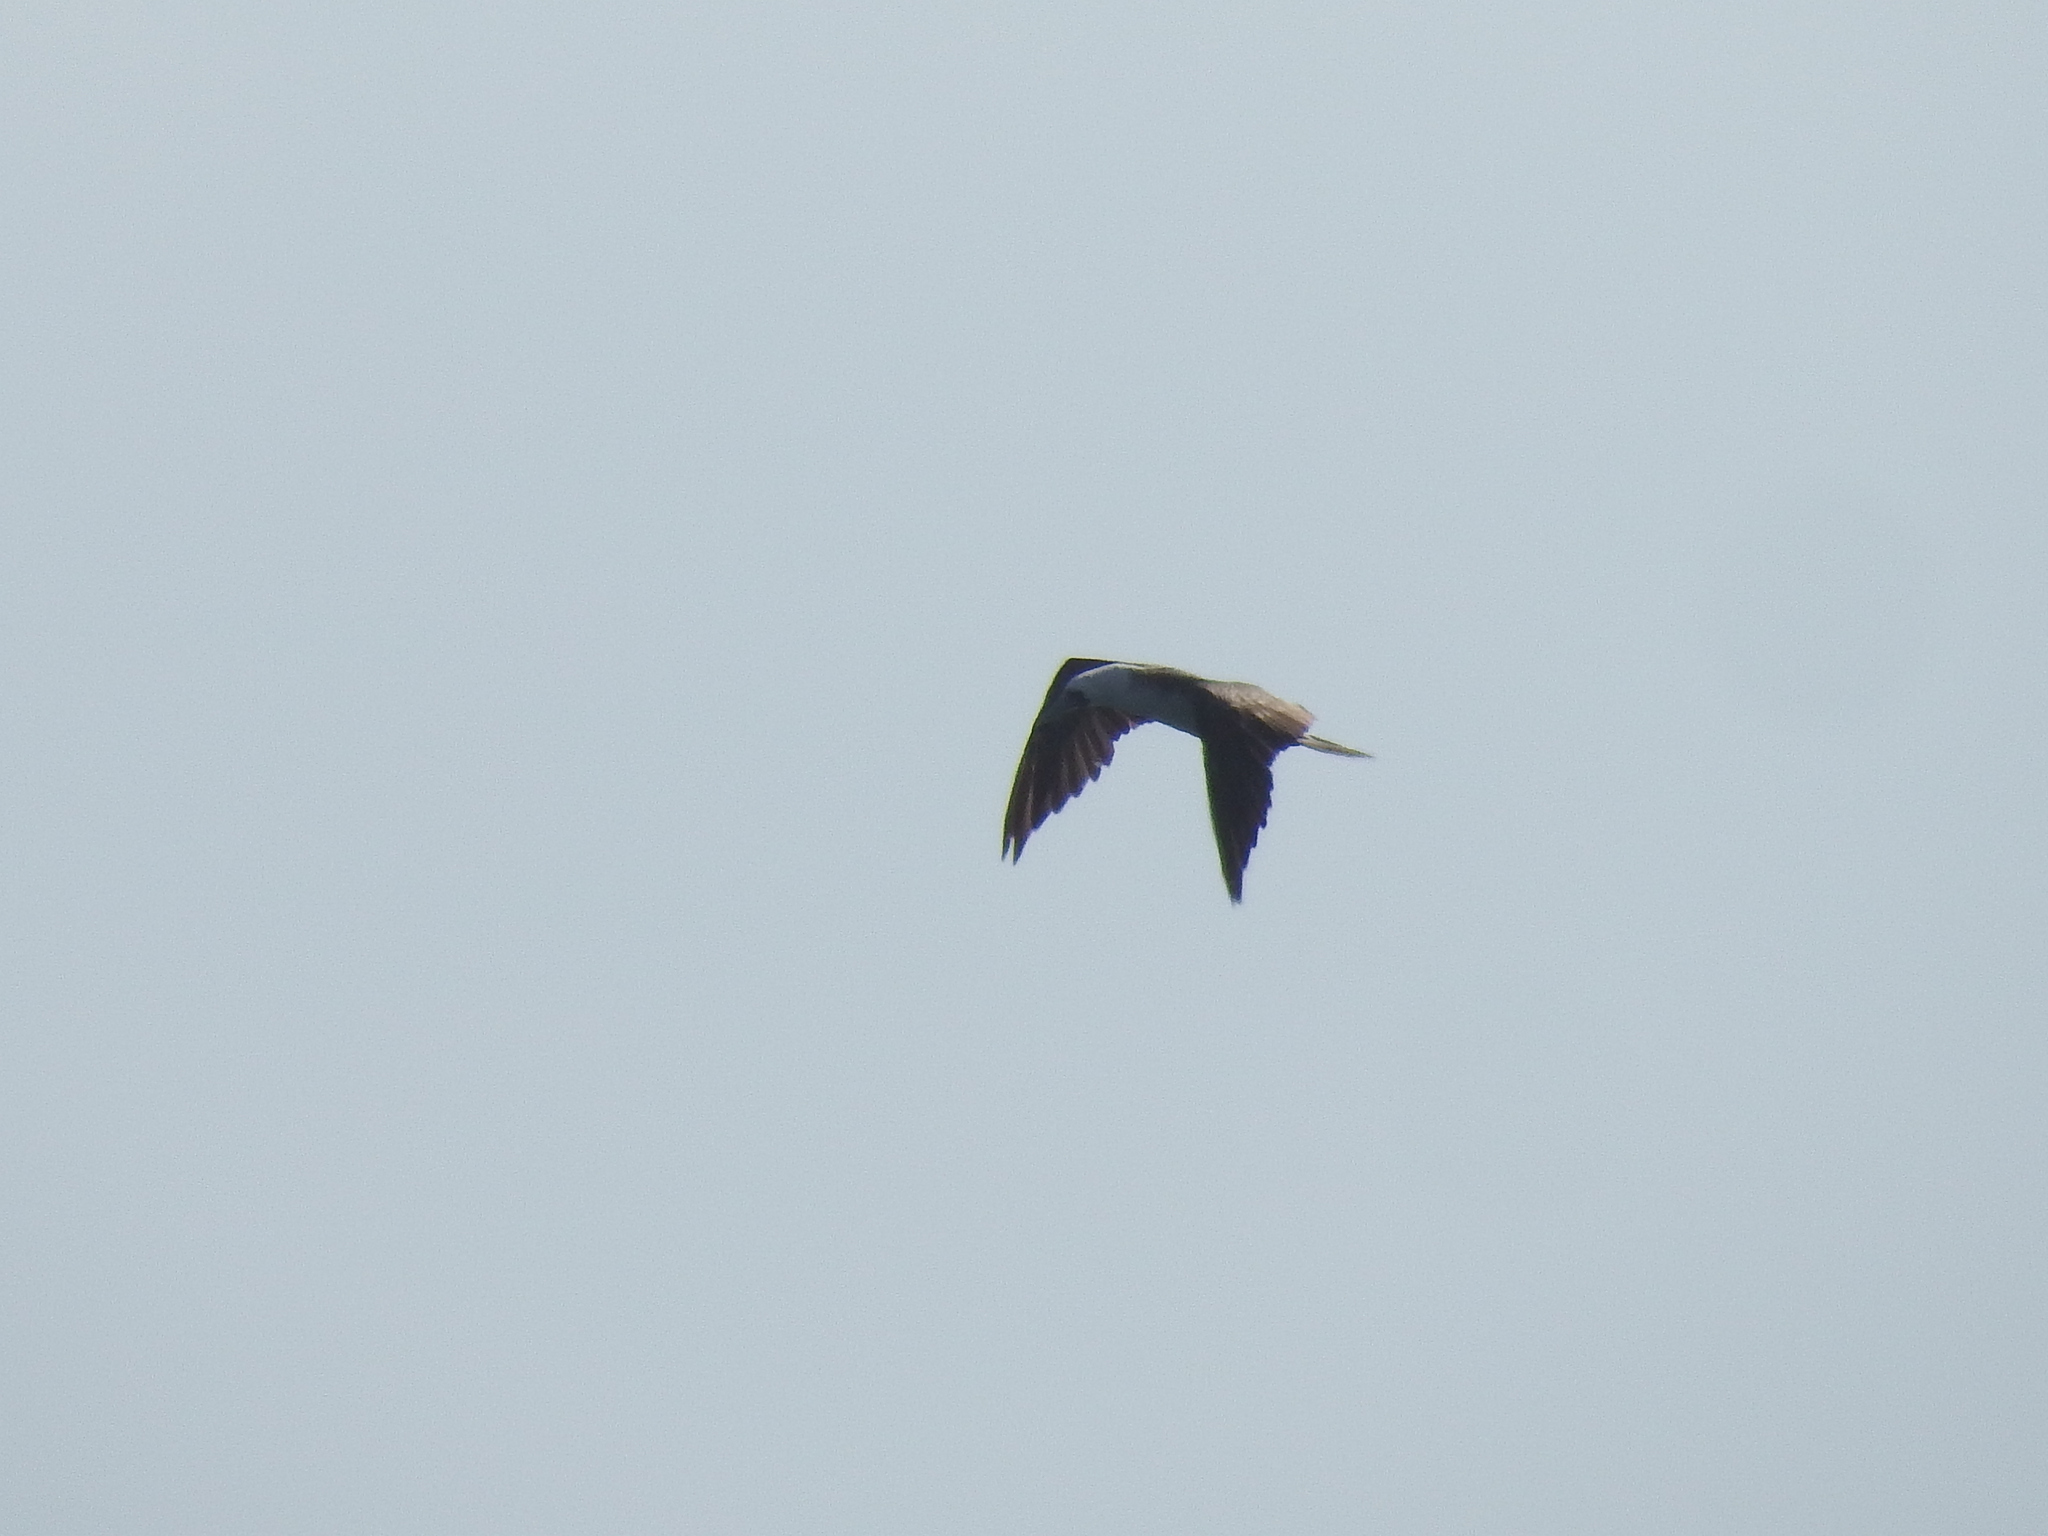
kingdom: Animalia
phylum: Chordata
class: Aves
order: Suliformes
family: Sulidae
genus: Sula
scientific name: Sula variegata
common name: Peruvian booby
